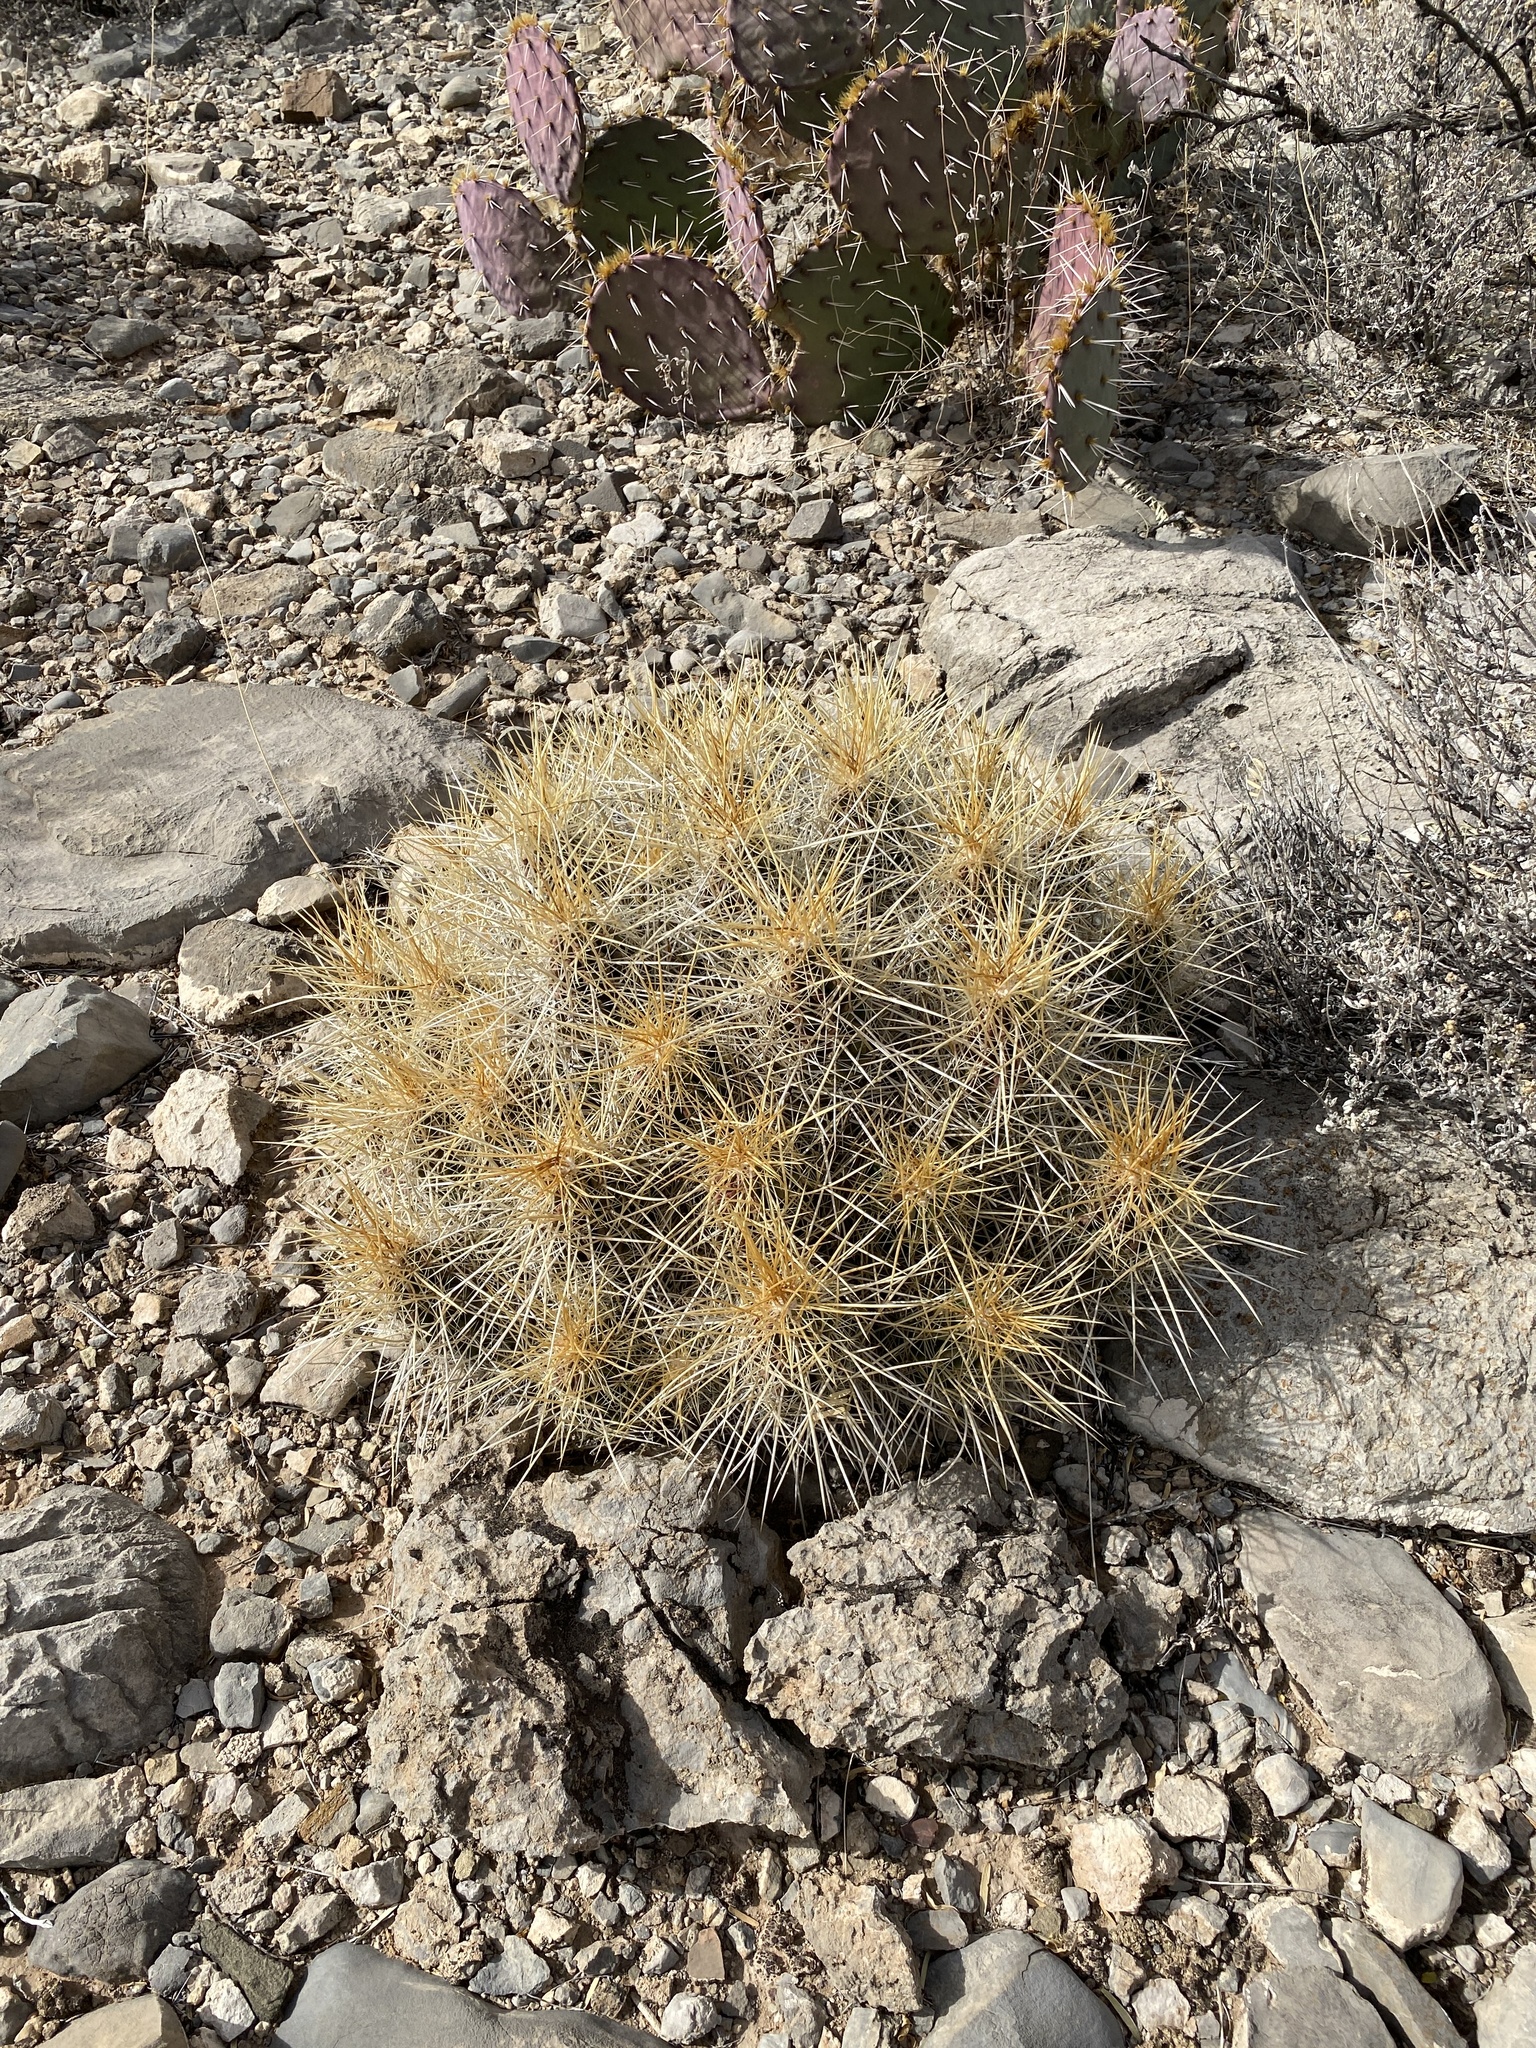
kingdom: Plantae
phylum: Tracheophyta
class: Magnoliopsida
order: Caryophyllales
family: Cactaceae
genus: Echinocereus
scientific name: Echinocereus stramineus
